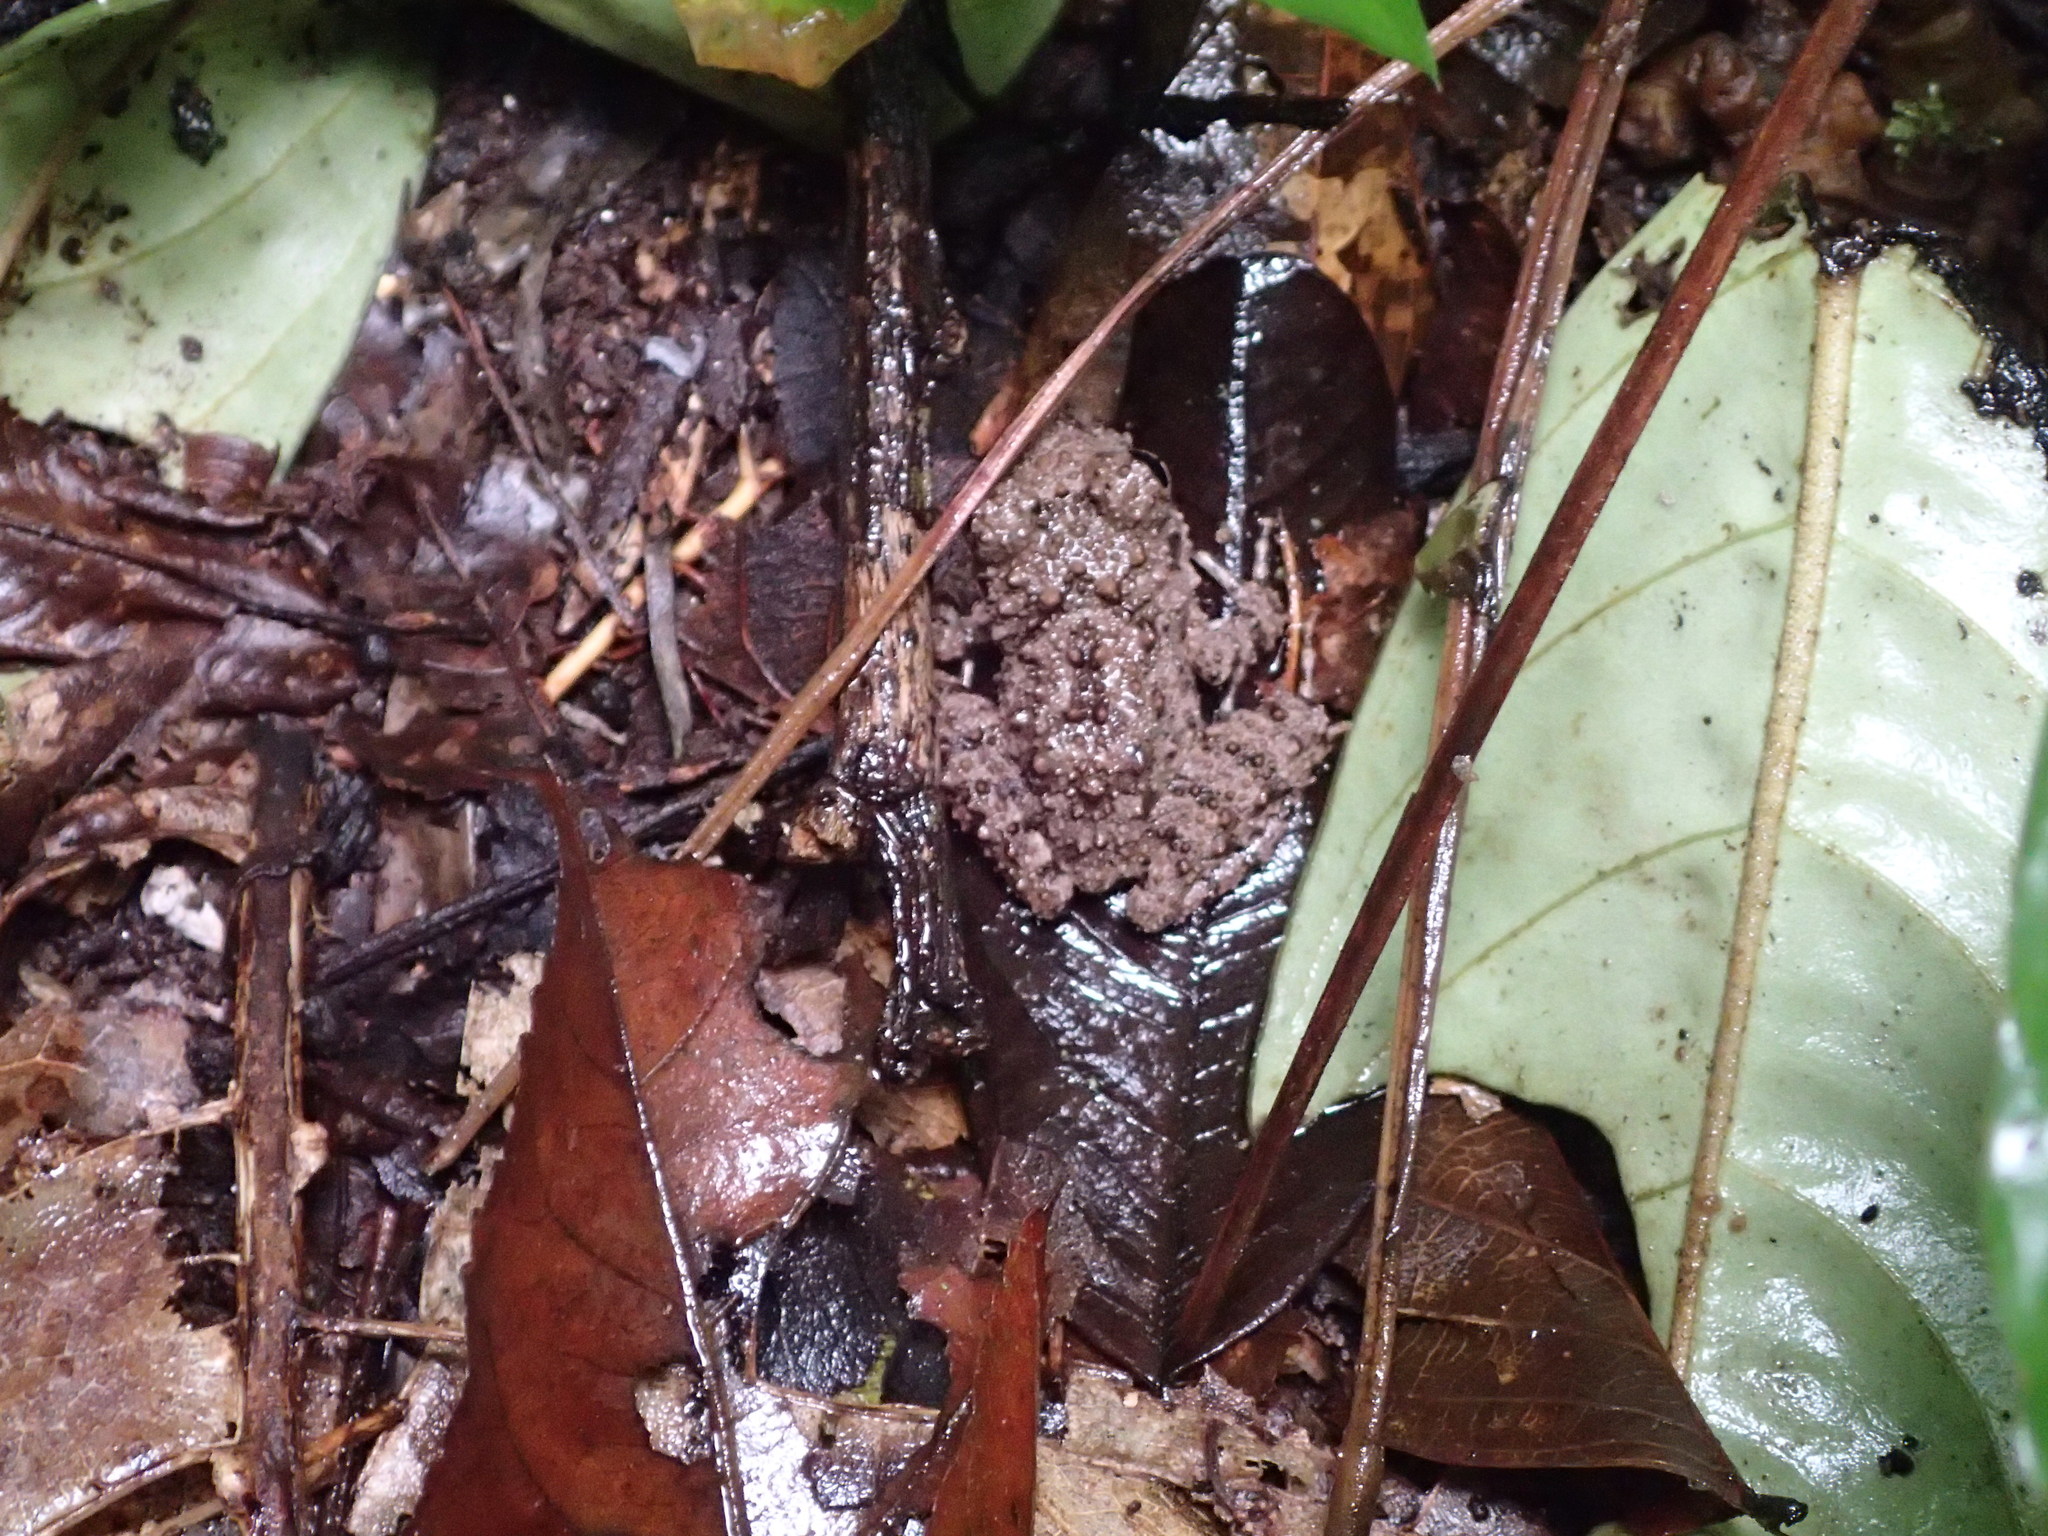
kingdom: Animalia
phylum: Chordata
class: Amphibia
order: Anura
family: Craugastoridae
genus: Oreobates
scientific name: Oreobates quixensis
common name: Common big-headed frog
